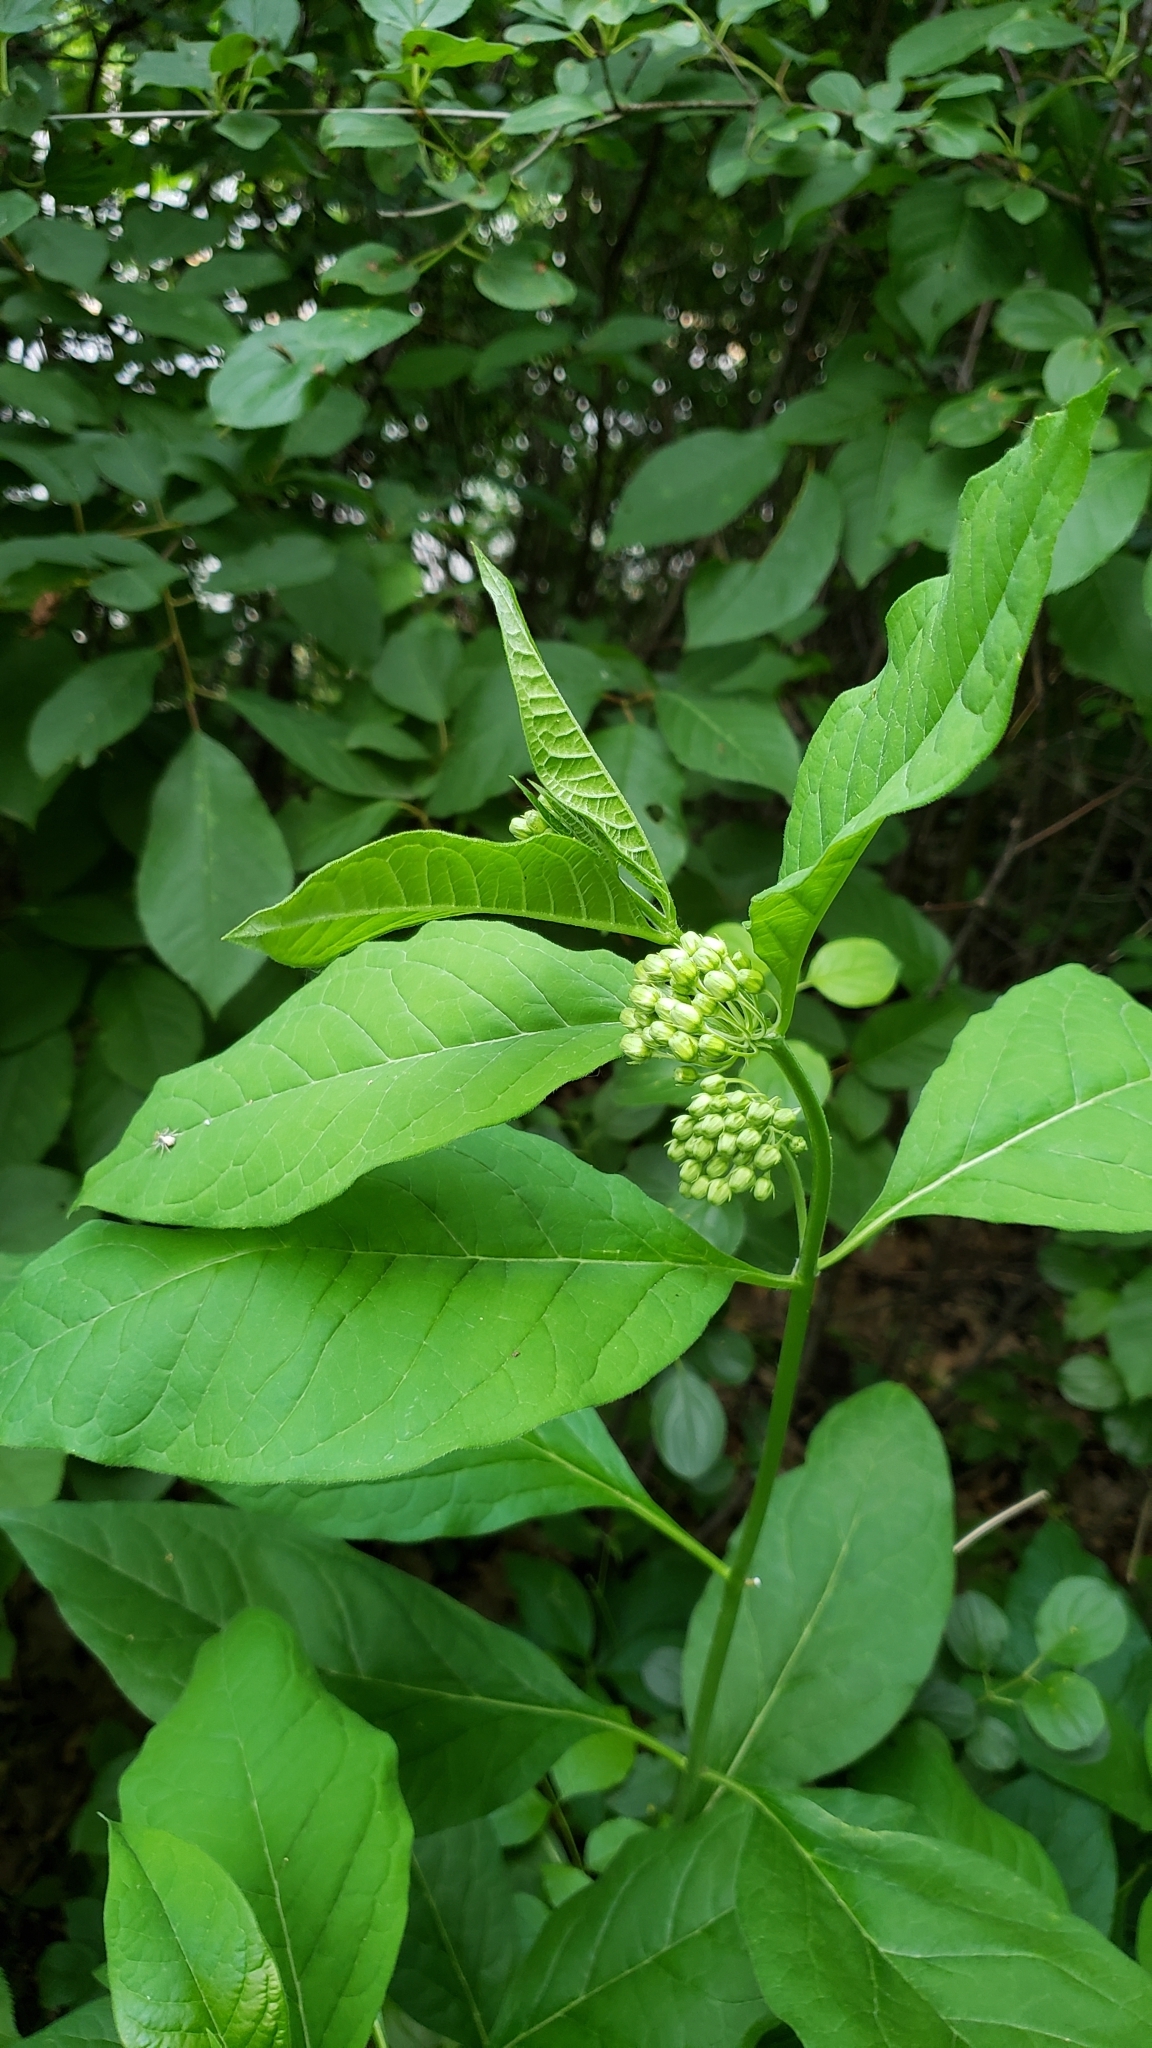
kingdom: Plantae
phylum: Tracheophyta
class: Magnoliopsida
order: Gentianales
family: Apocynaceae
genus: Asclepias
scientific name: Asclepias exaltata
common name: Poke milkweed
